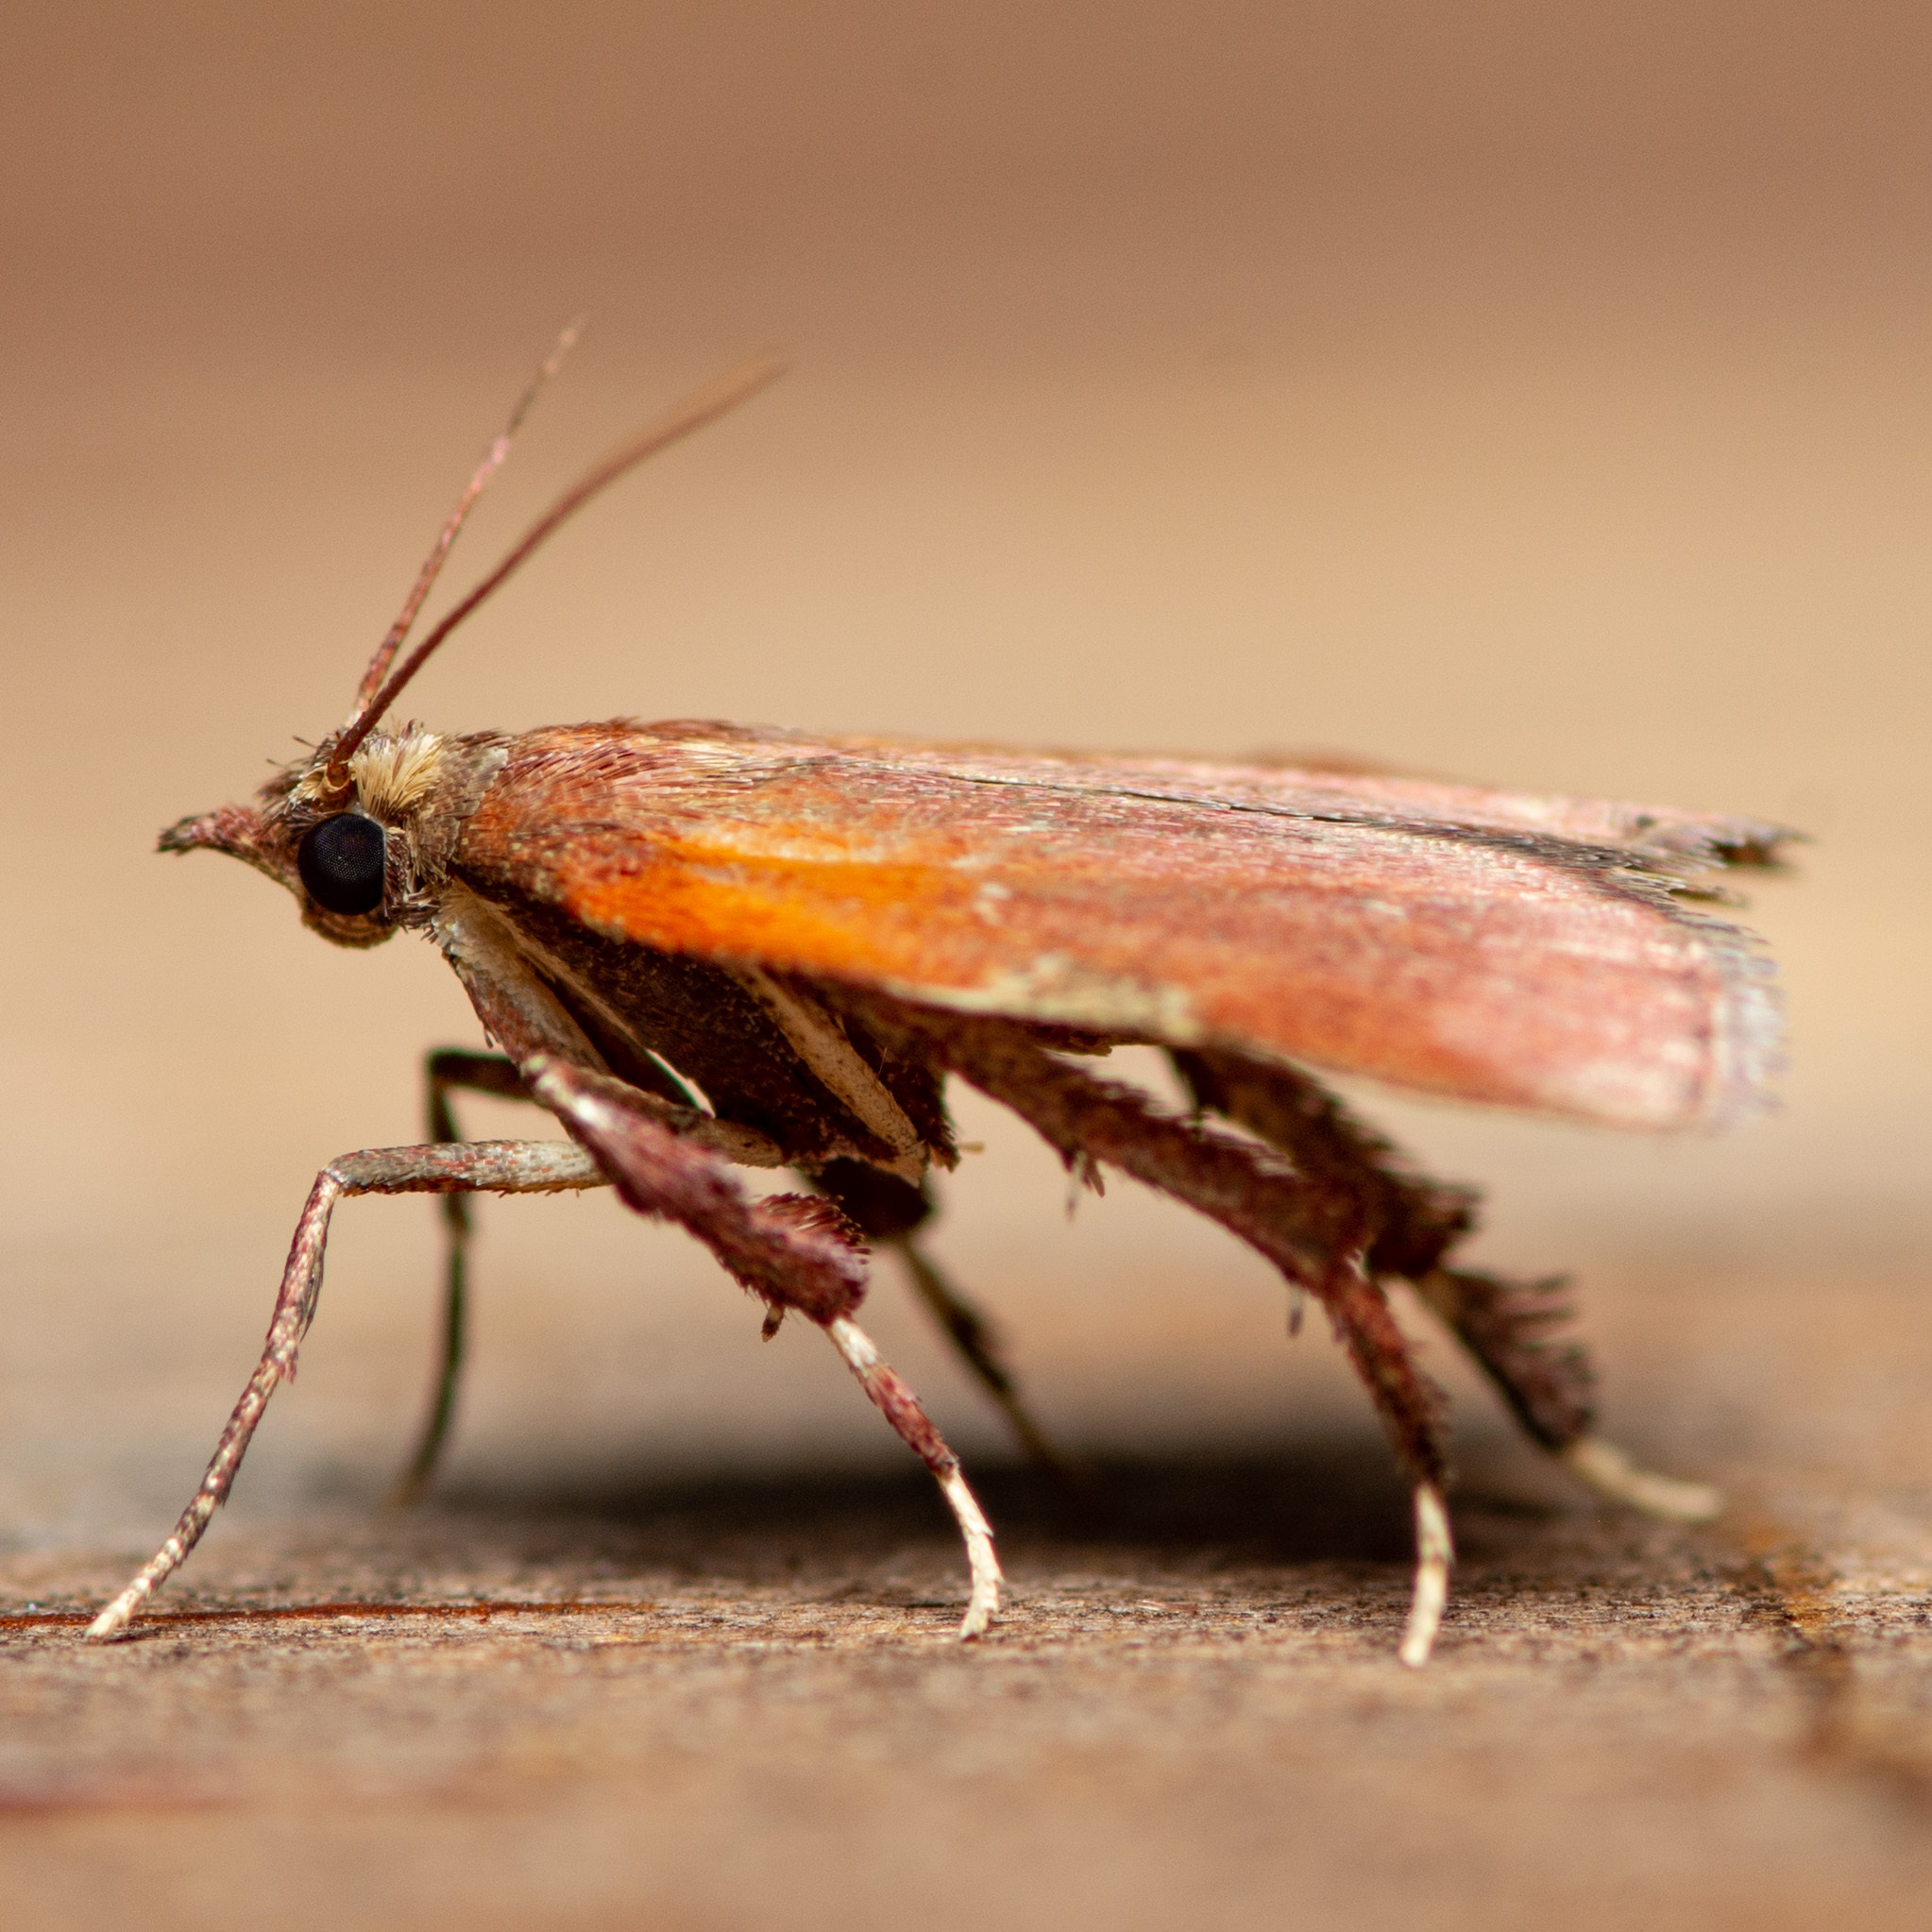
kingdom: Animalia
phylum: Arthropoda
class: Insecta
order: Lepidoptera
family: Pyralidae
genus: Galasa
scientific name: Galasa nigrinodis
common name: Boxwood leaftier moth
